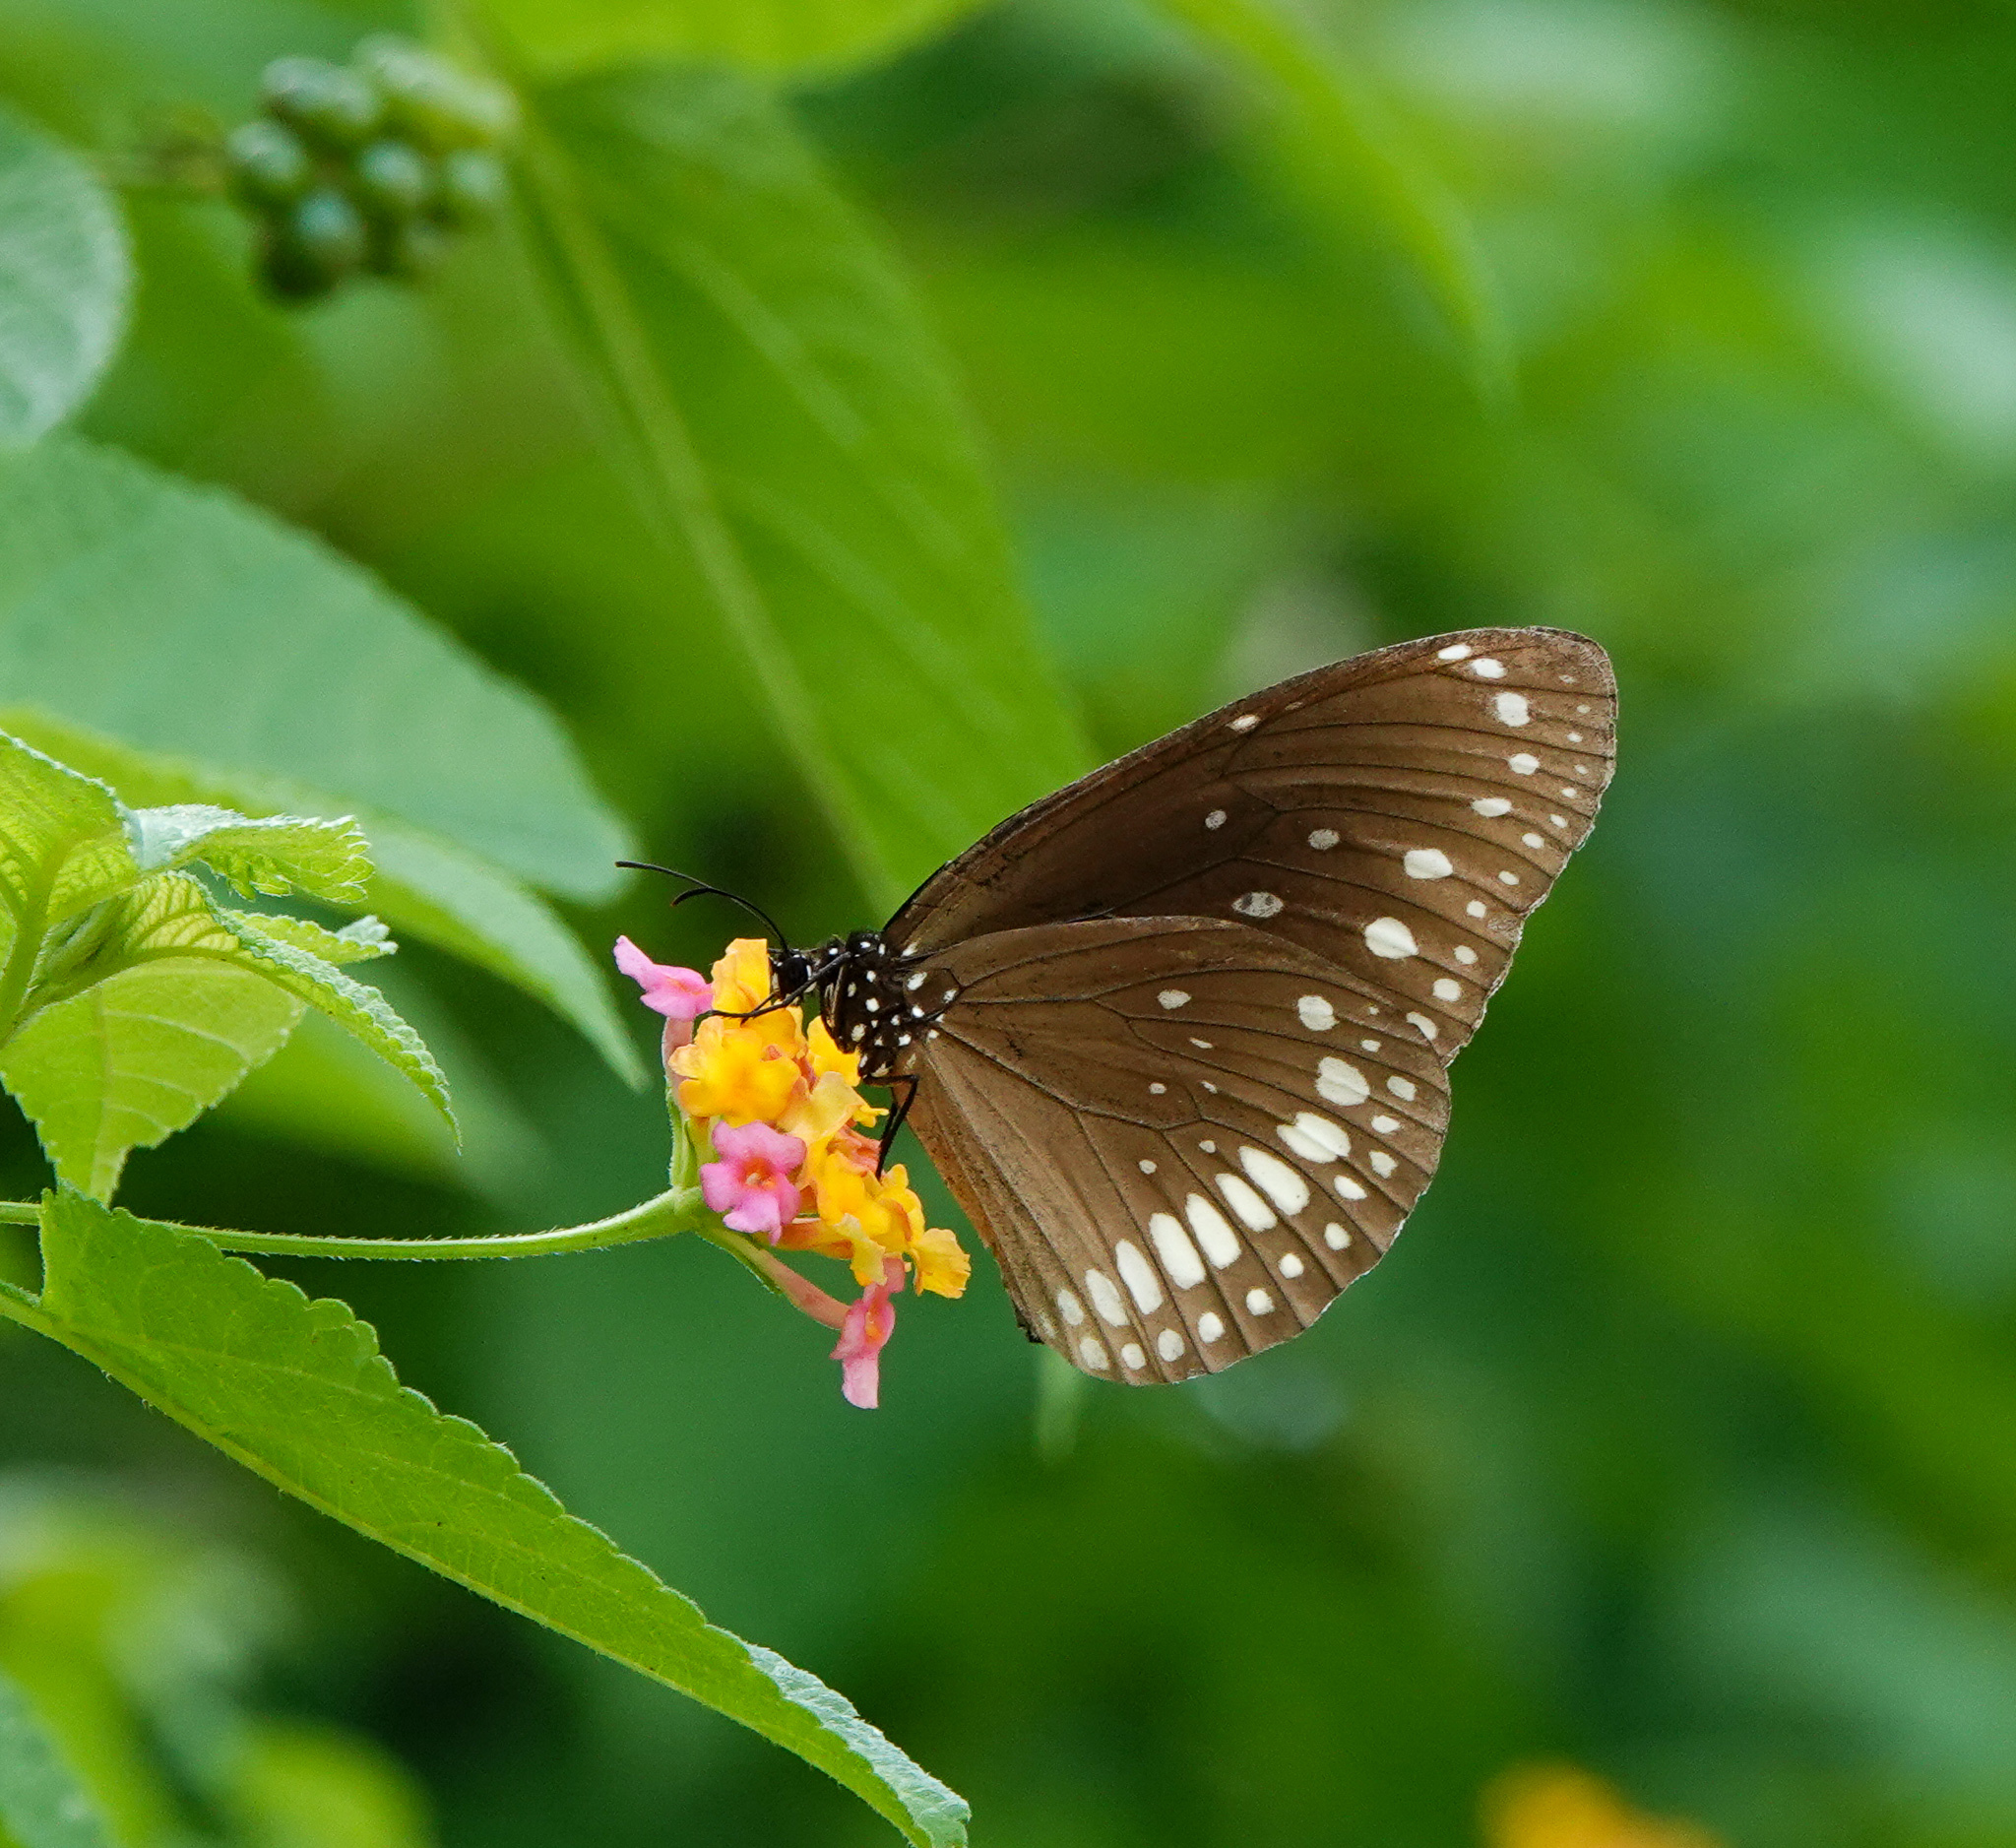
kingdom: Animalia
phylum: Arthropoda
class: Insecta
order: Lepidoptera
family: Nymphalidae
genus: Euploea
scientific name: Euploea core
